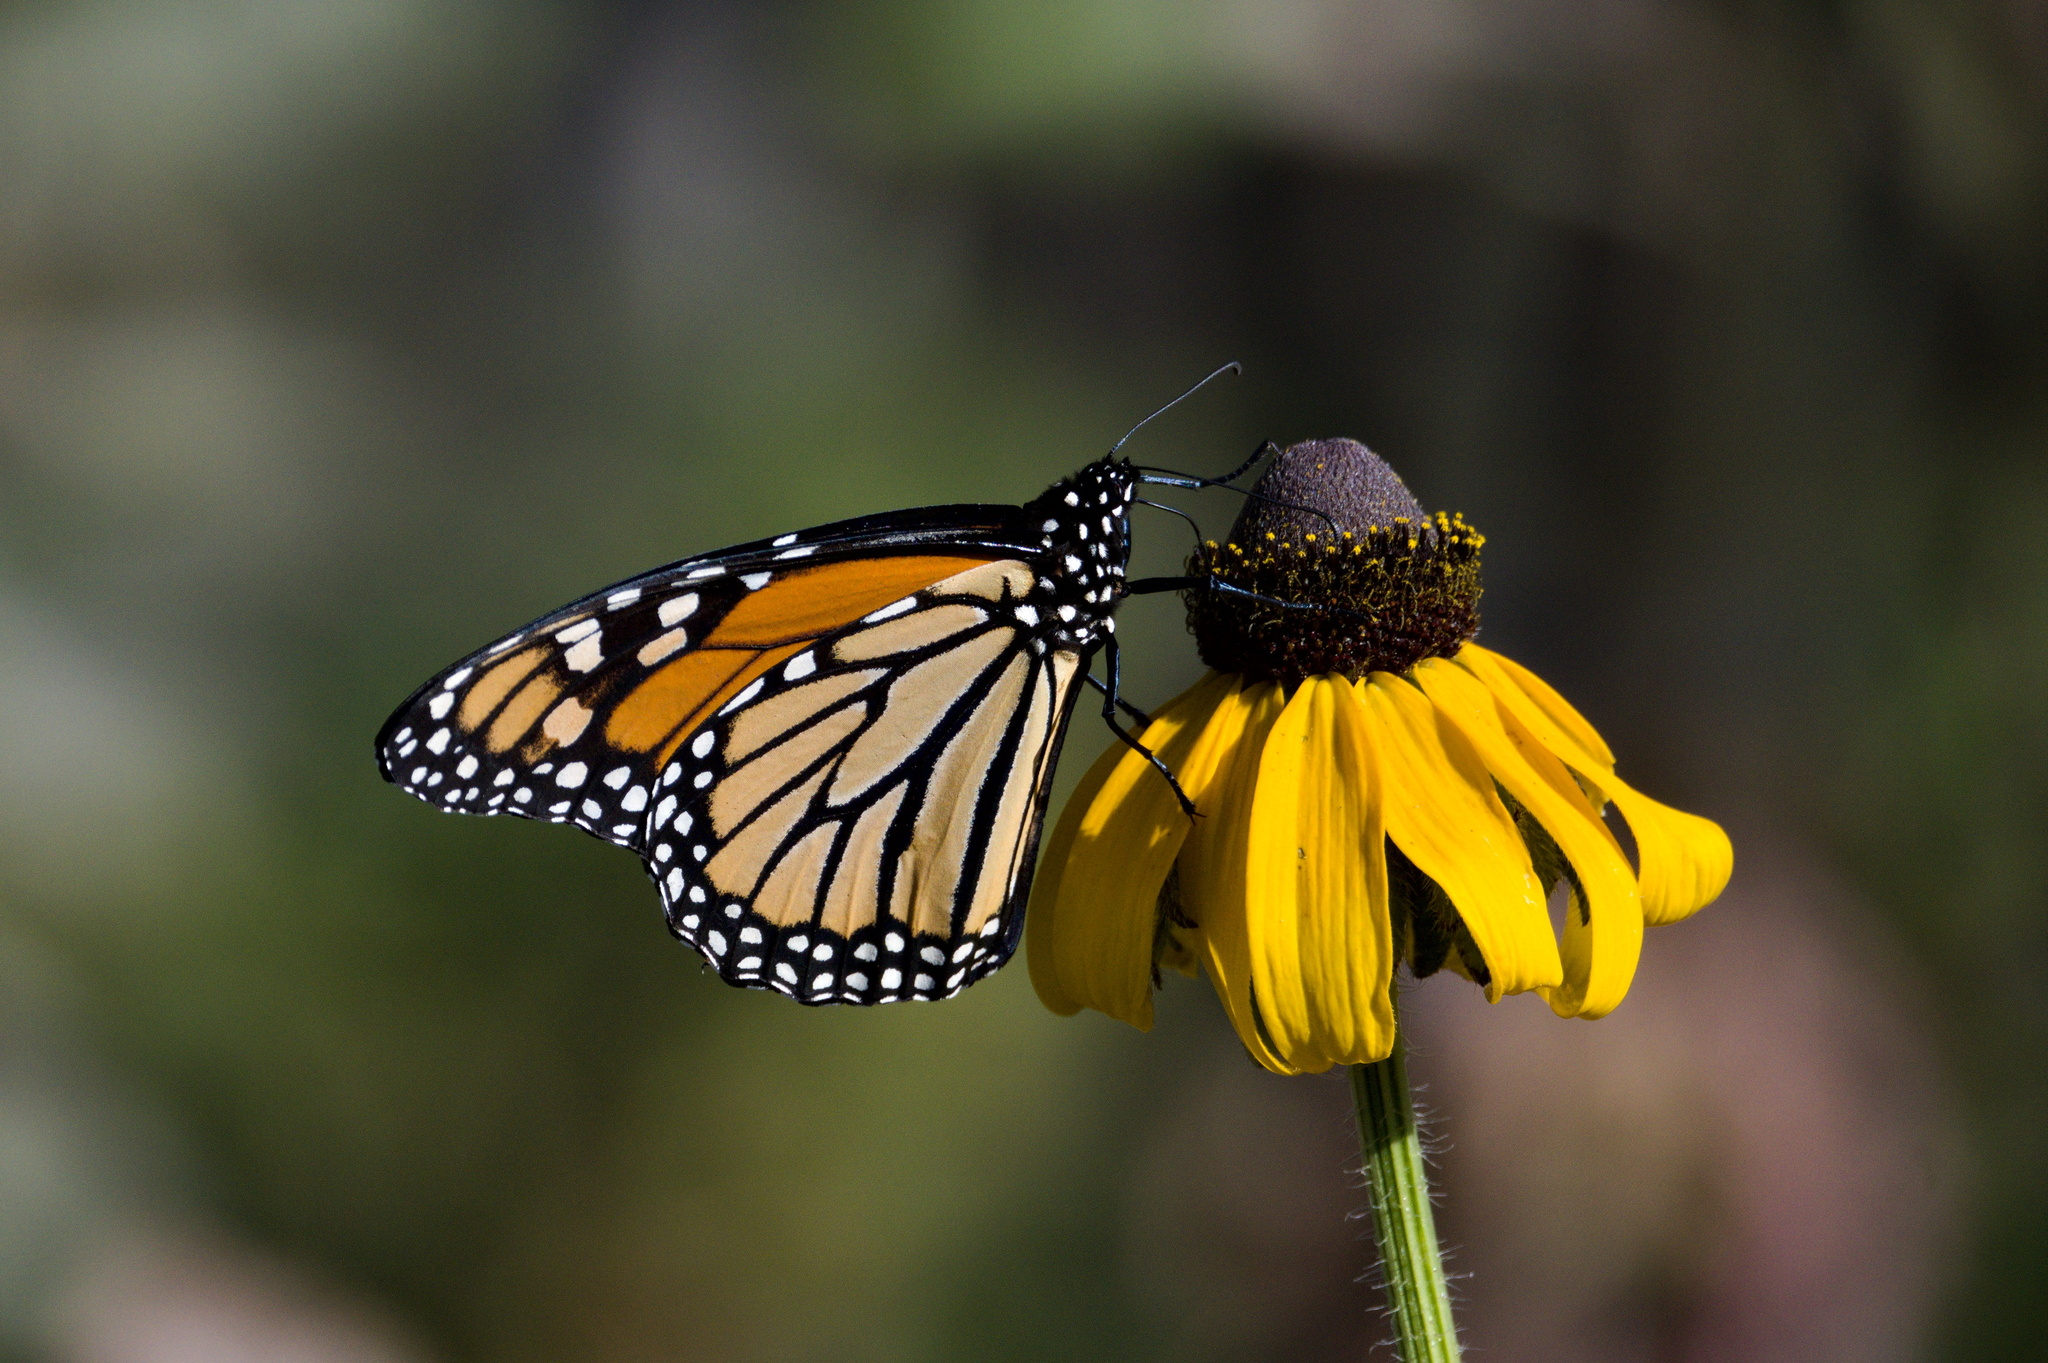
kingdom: Animalia
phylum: Arthropoda
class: Insecta
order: Lepidoptera
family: Nymphalidae
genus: Danaus
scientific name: Danaus plexippus
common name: Monarch
